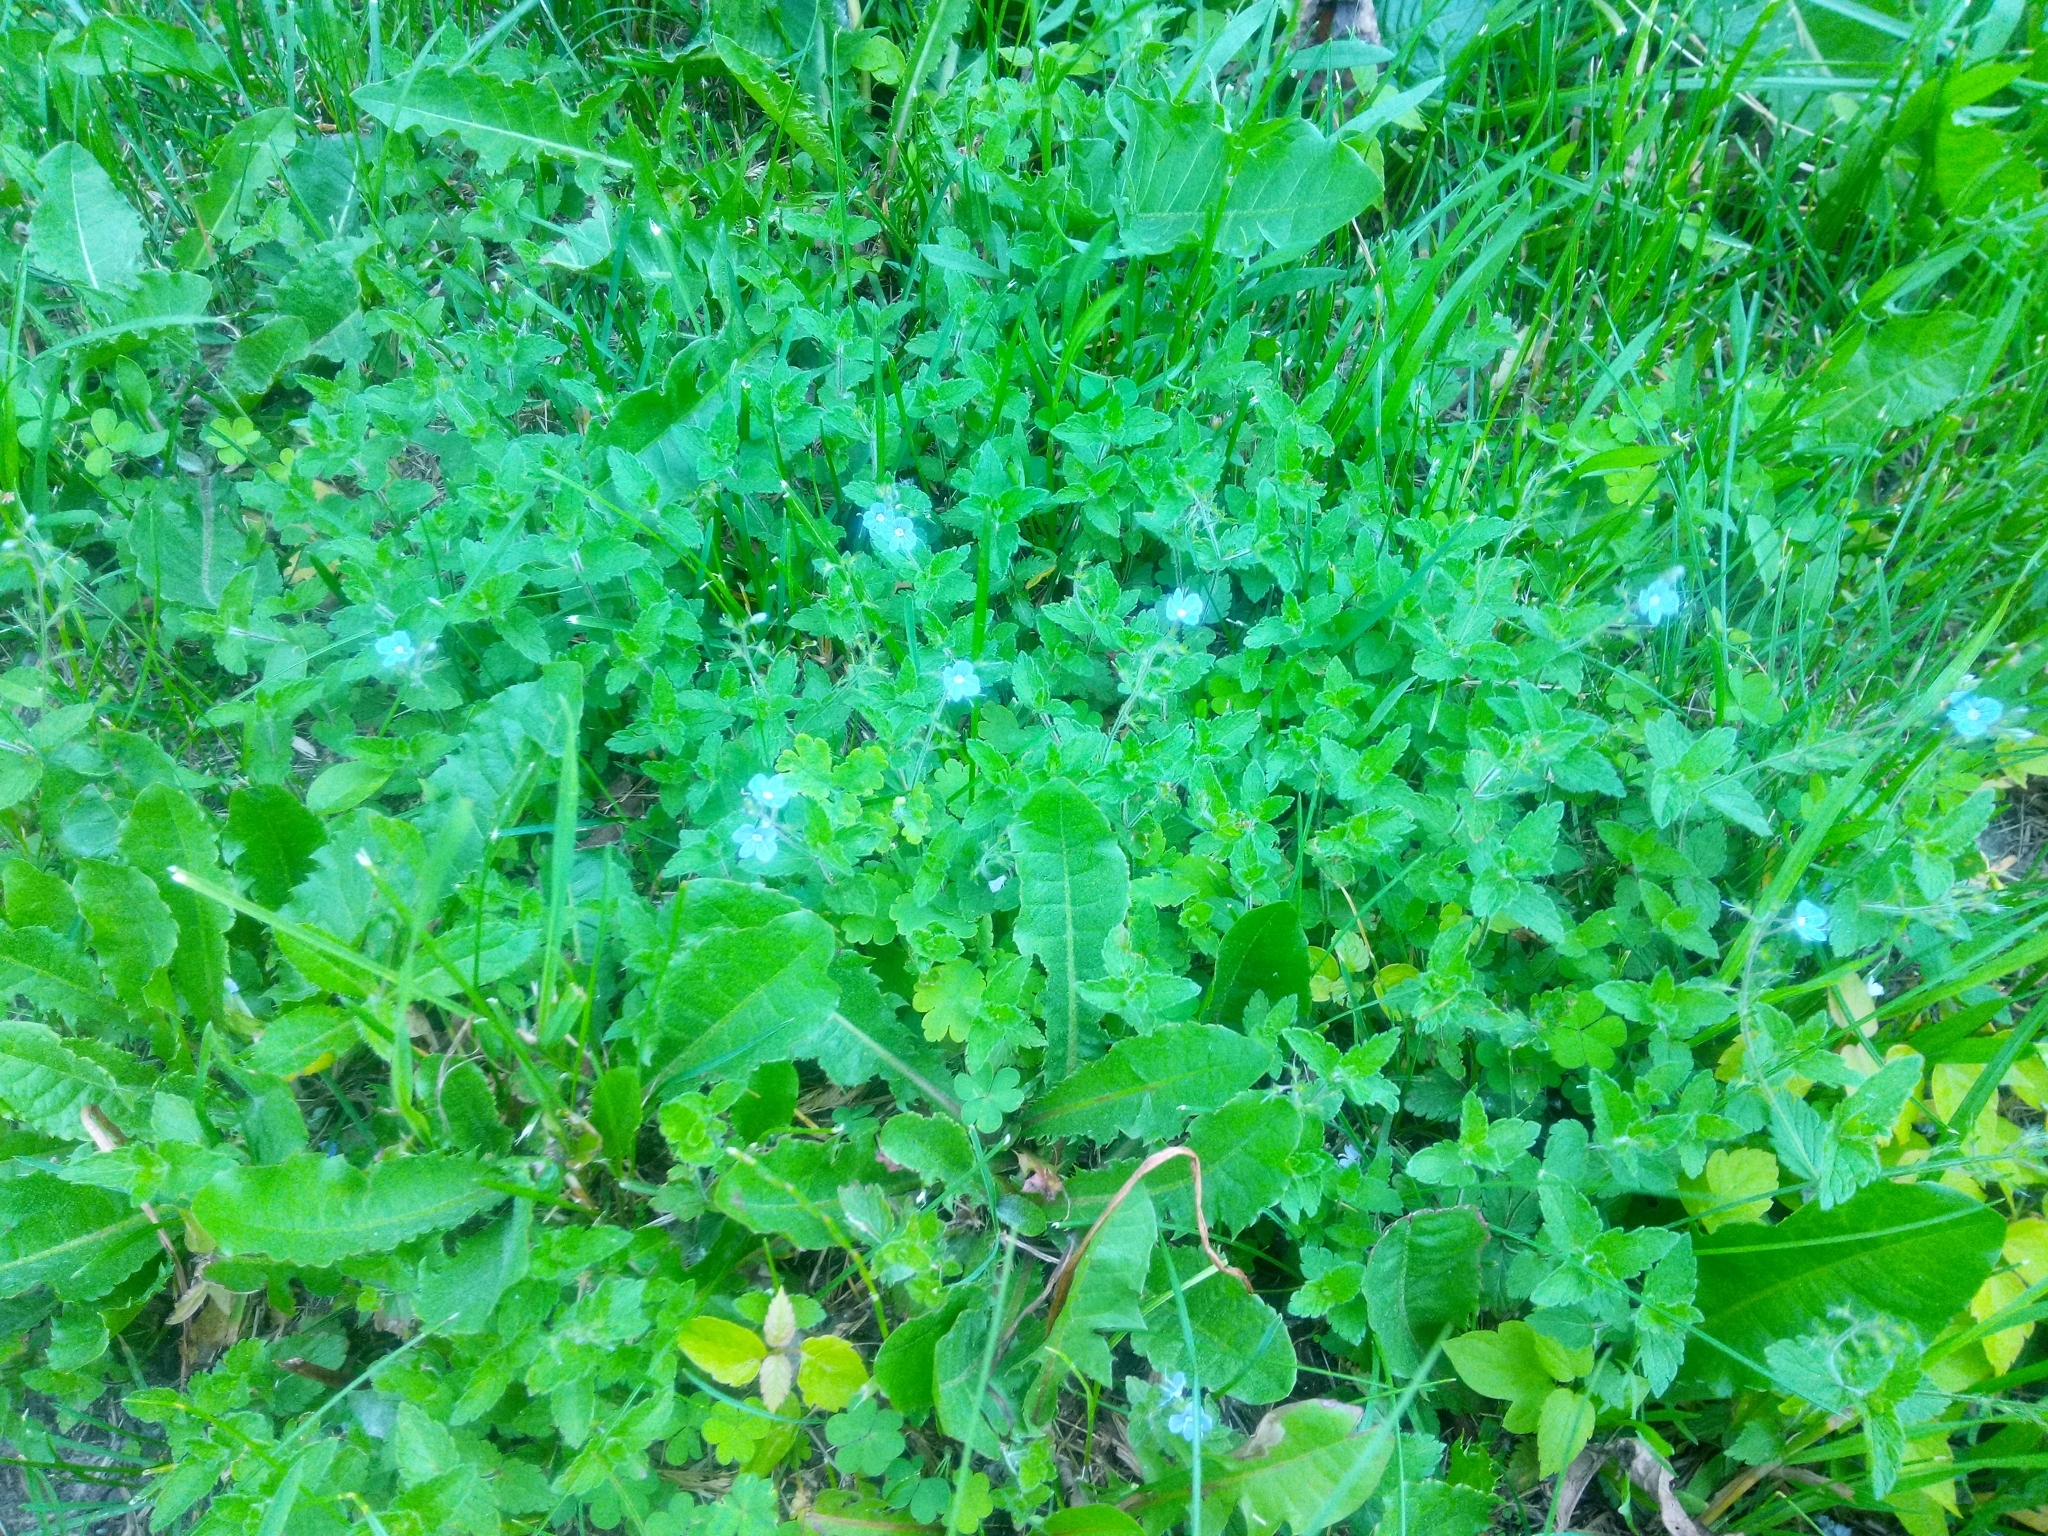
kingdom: Plantae
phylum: Tracheophyta
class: Magnoliopsida
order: Lamiales
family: Plantaginaceae
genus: Veronica
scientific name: Veronica chamaedrys
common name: Germander speedwell
